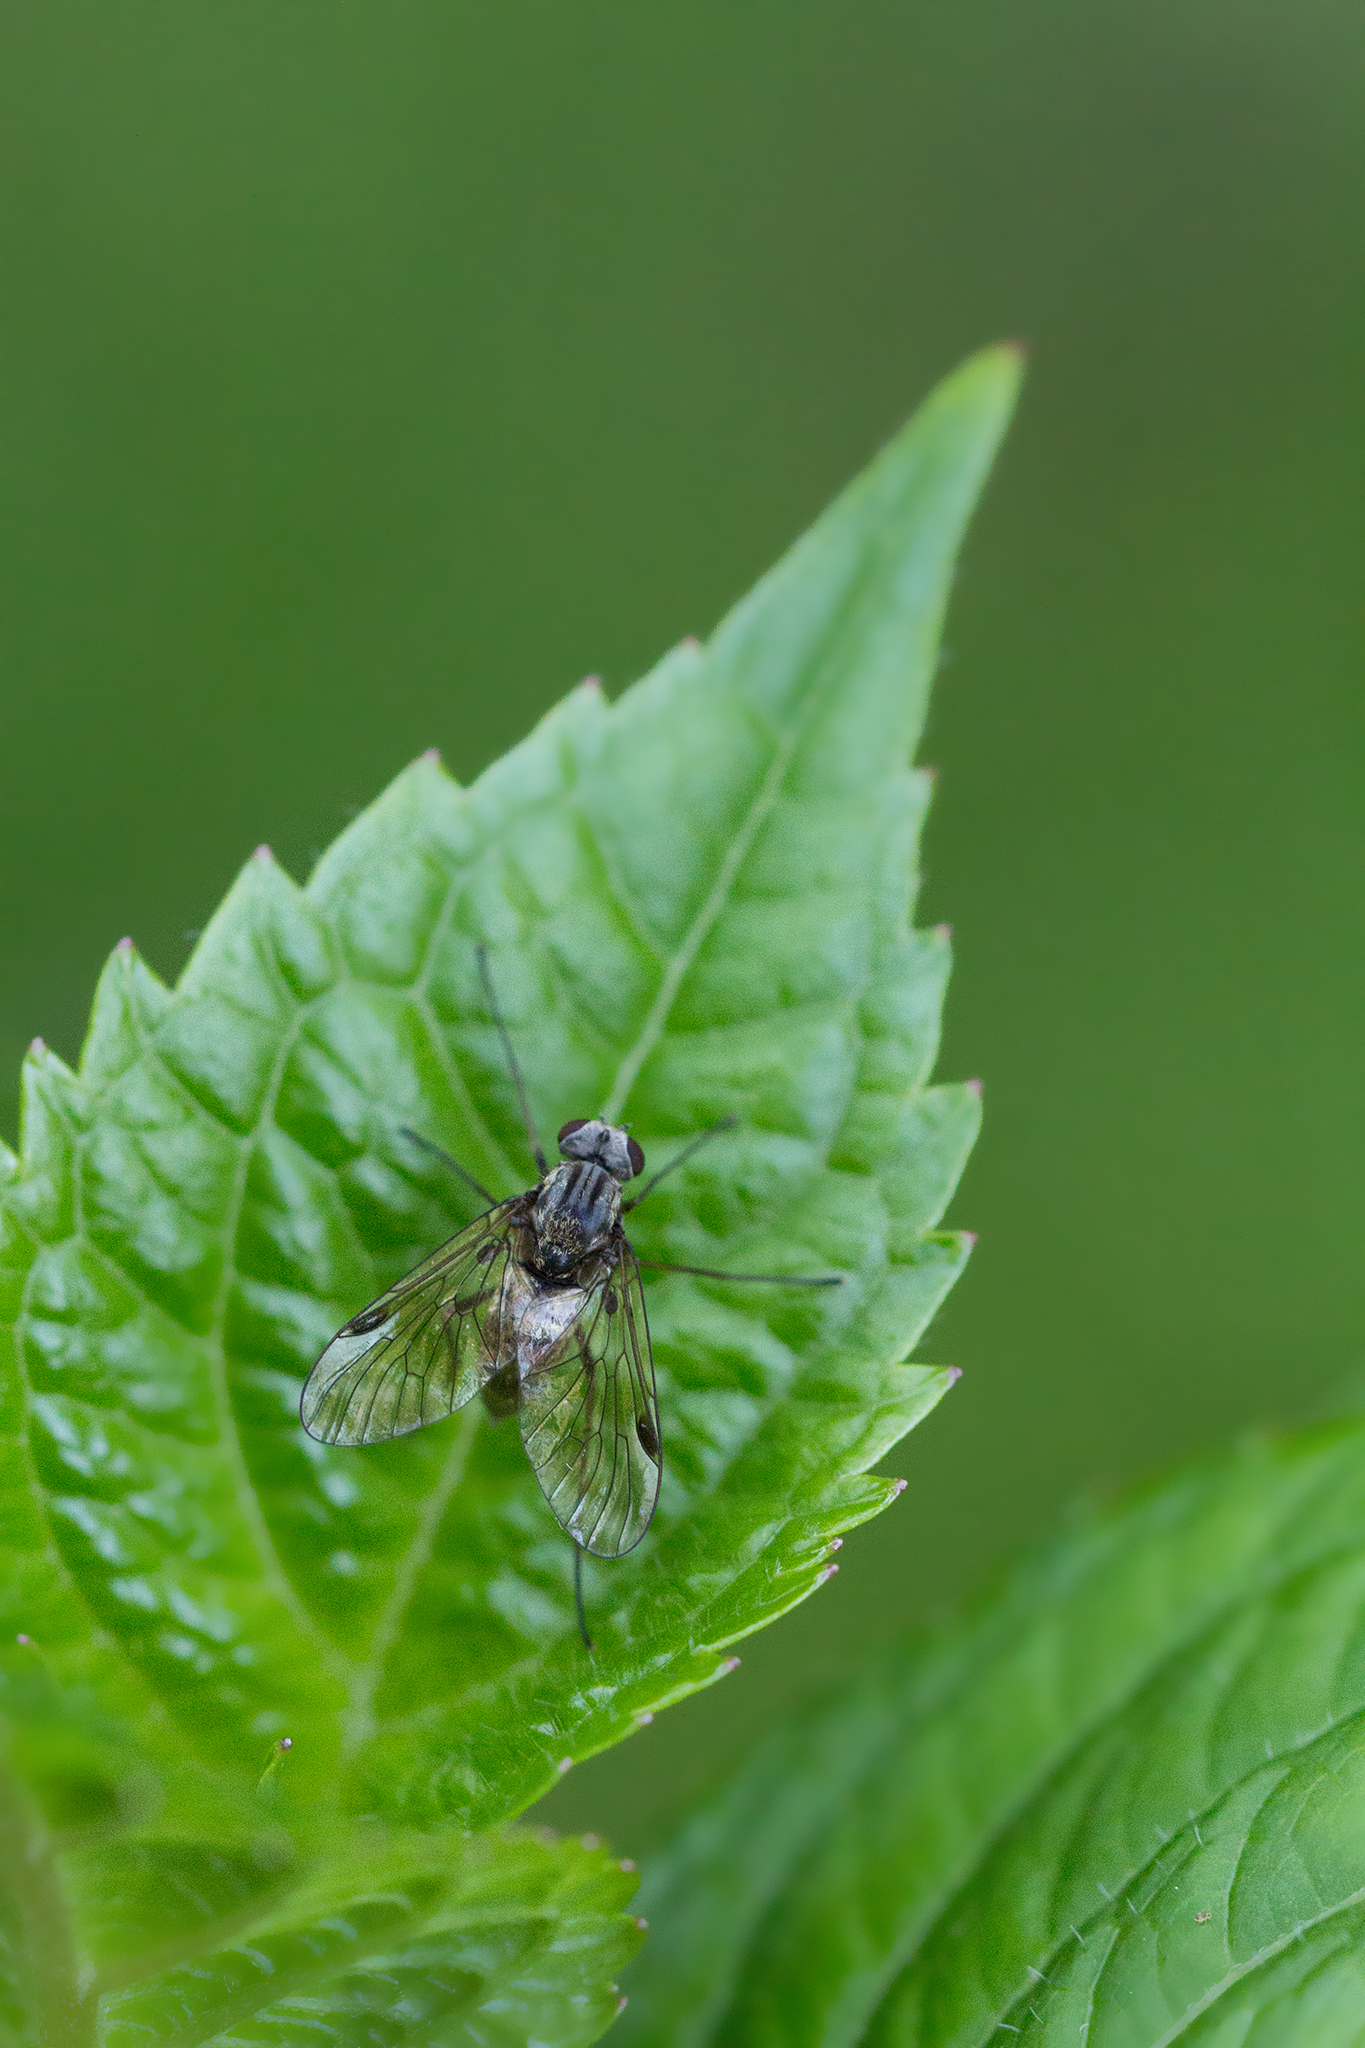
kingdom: Animalia
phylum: Arthropoda
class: Insecta
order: Diptera
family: Rhagionidae
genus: Chrysopilus
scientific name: Chrysopilus cristatus
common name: Black snipefly
